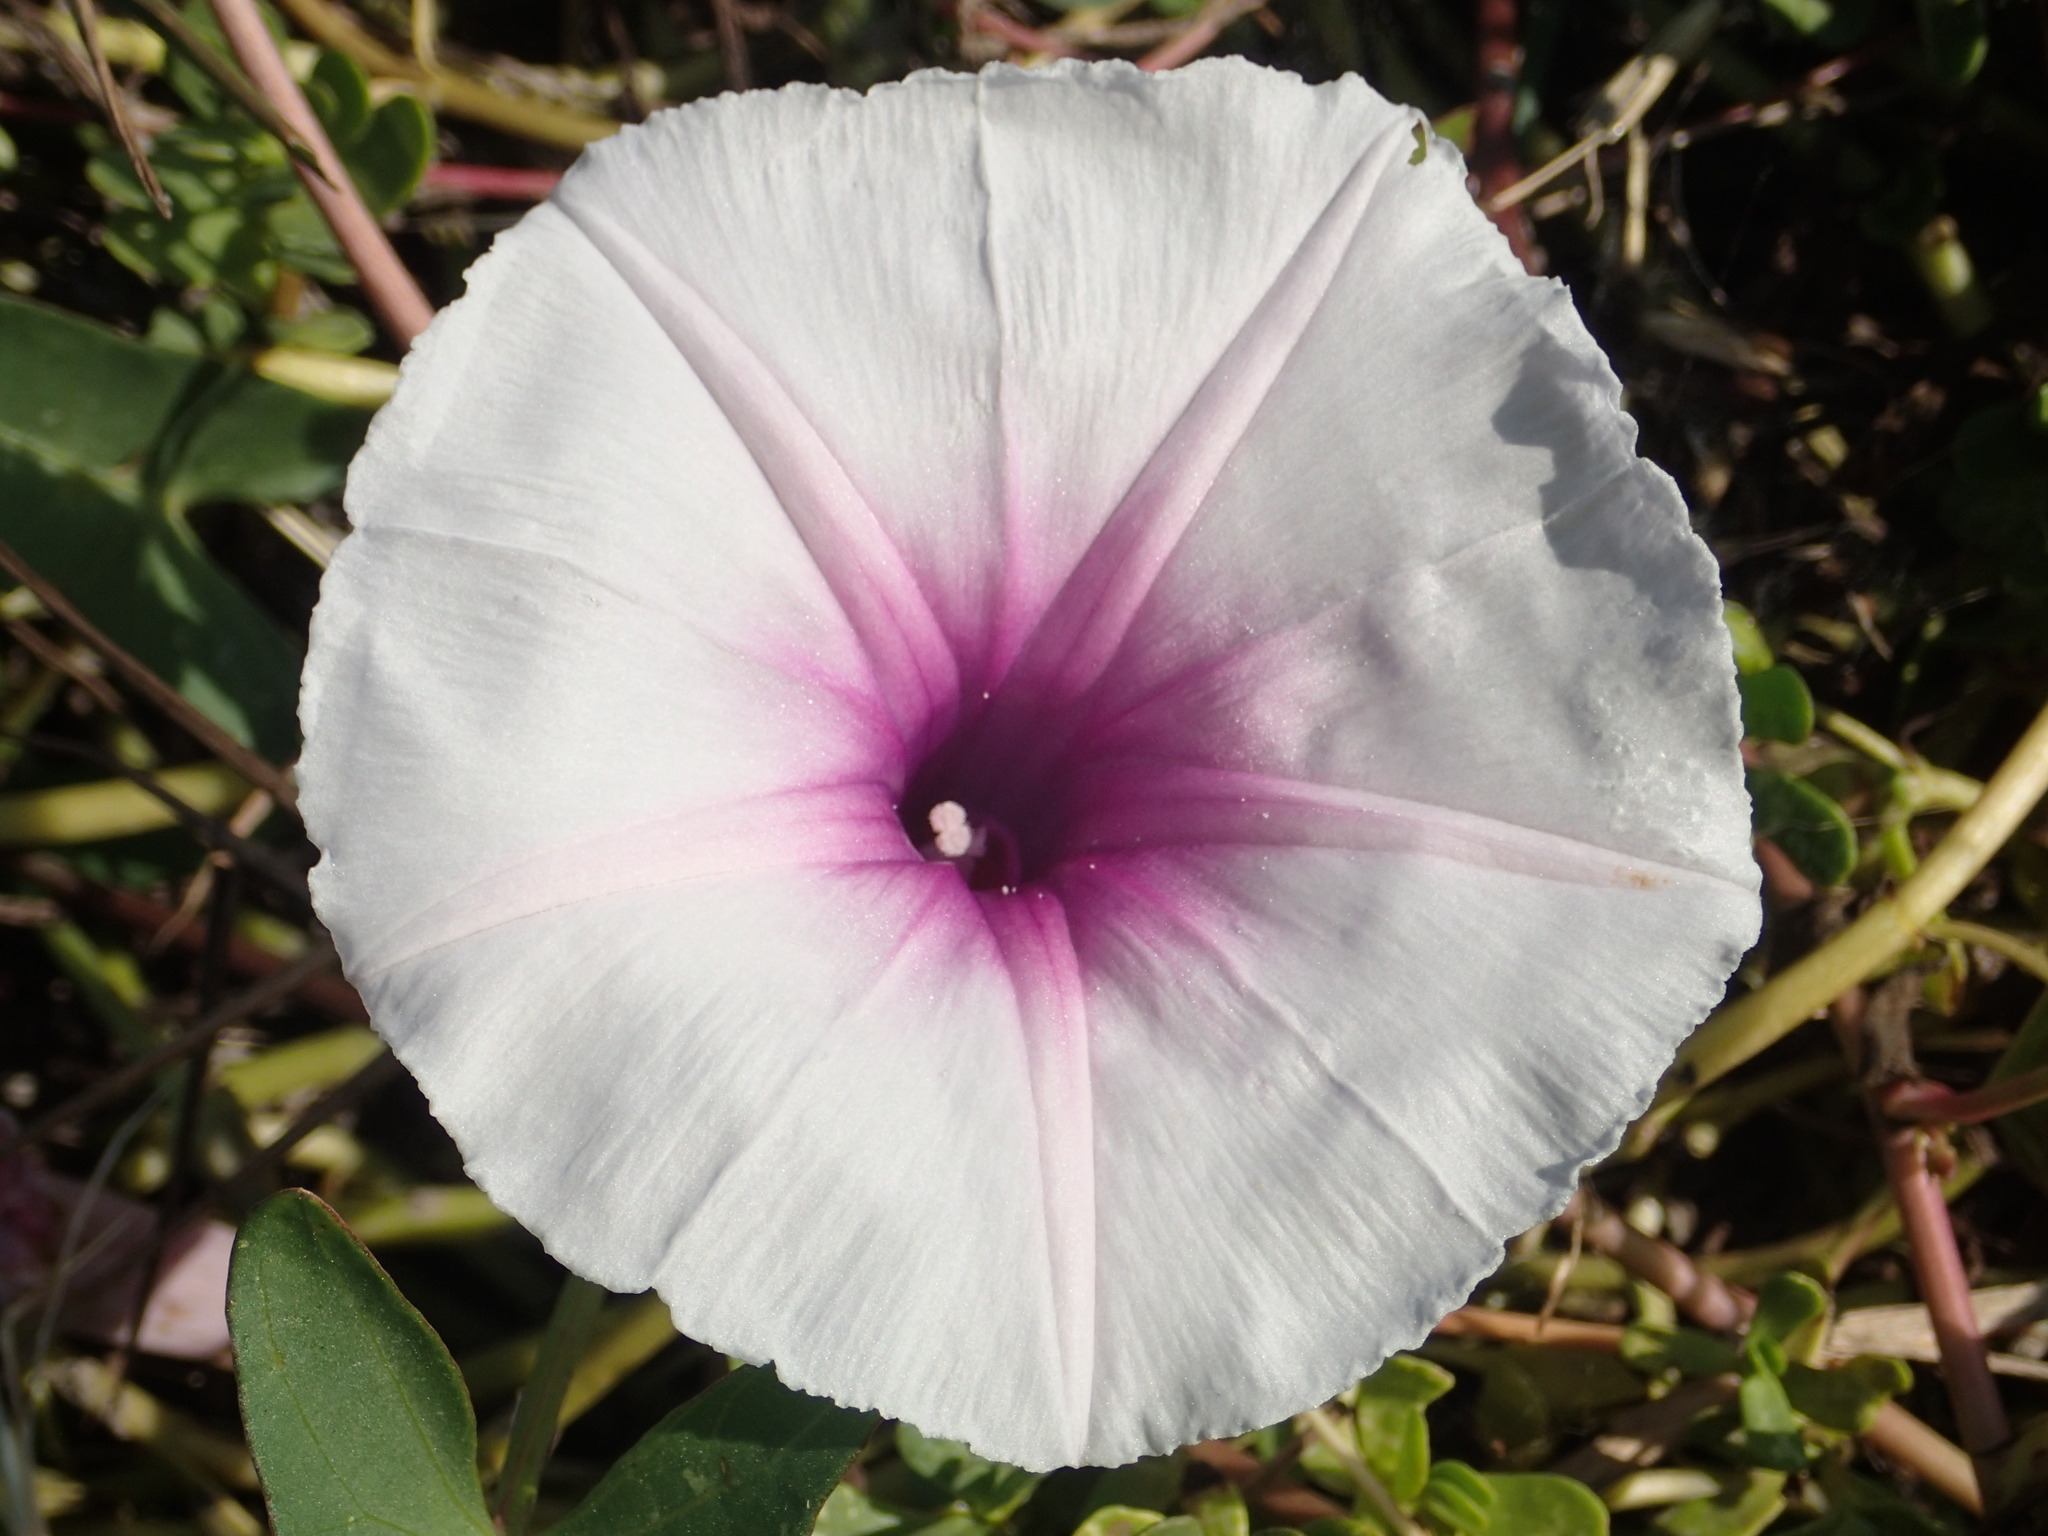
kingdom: Plantae
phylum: Tracheophyta
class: Magnoliopsida
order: Solanales
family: Convolvulaceae
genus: Ipomoea
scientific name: Ipomoea aquatica
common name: Swamp morning-glory
